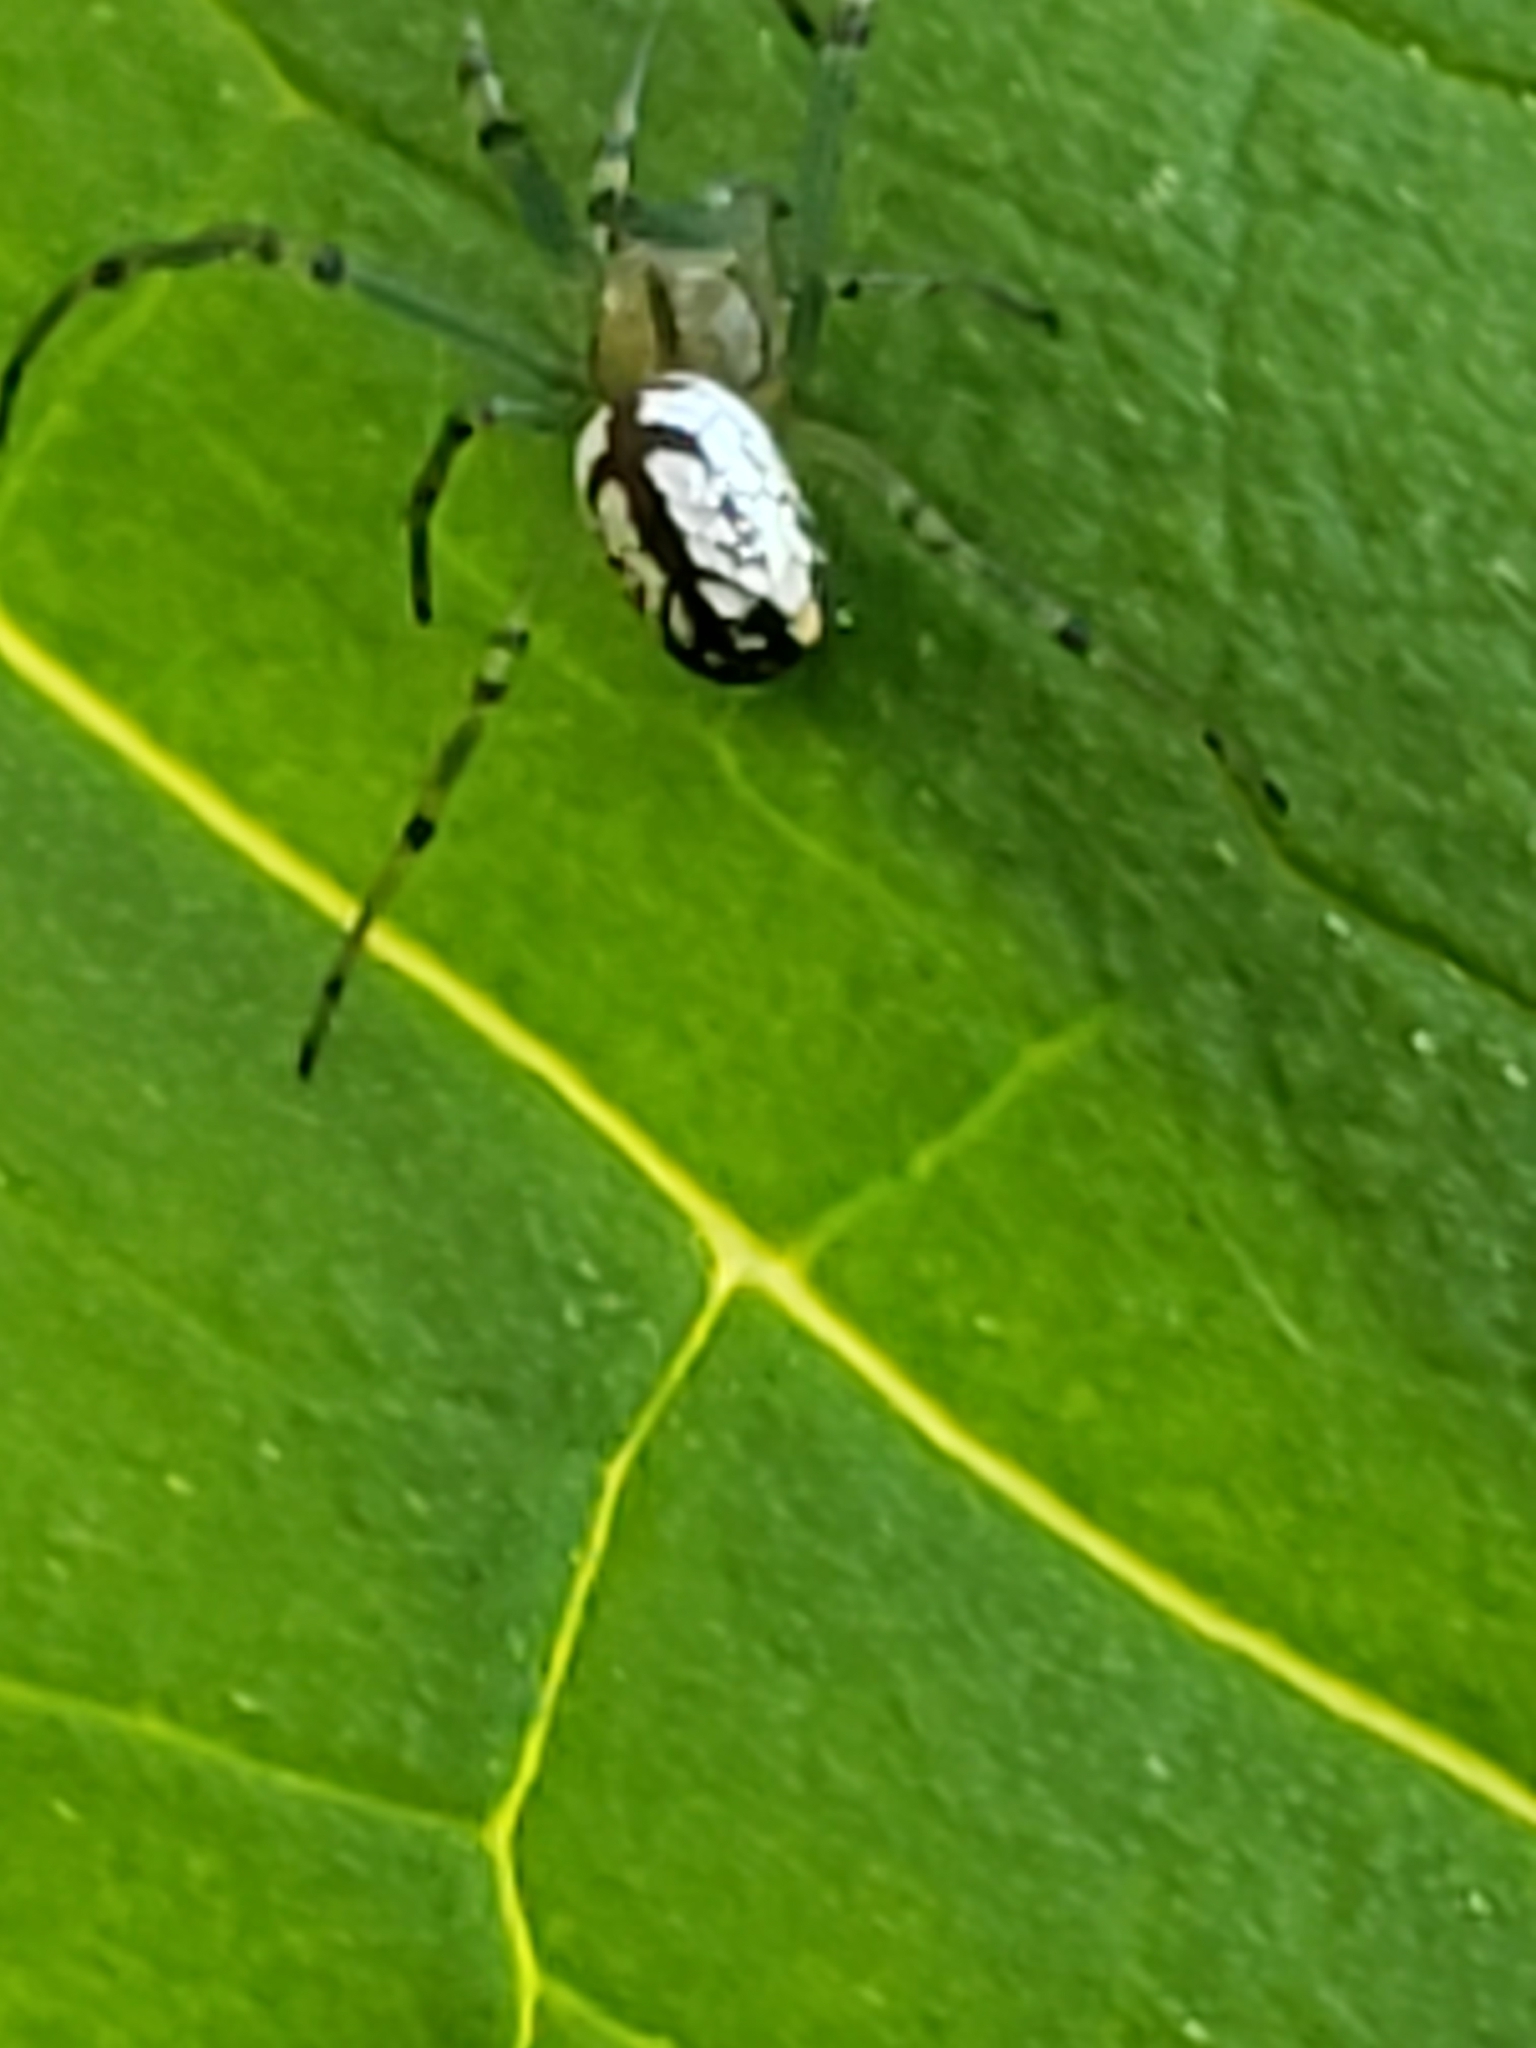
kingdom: Animalia
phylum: Arthropoda
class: Arachnida
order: Araneae
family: Tetragnathidae
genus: Leucauge
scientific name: Leucauge venusta
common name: Longjawed orb weavers
